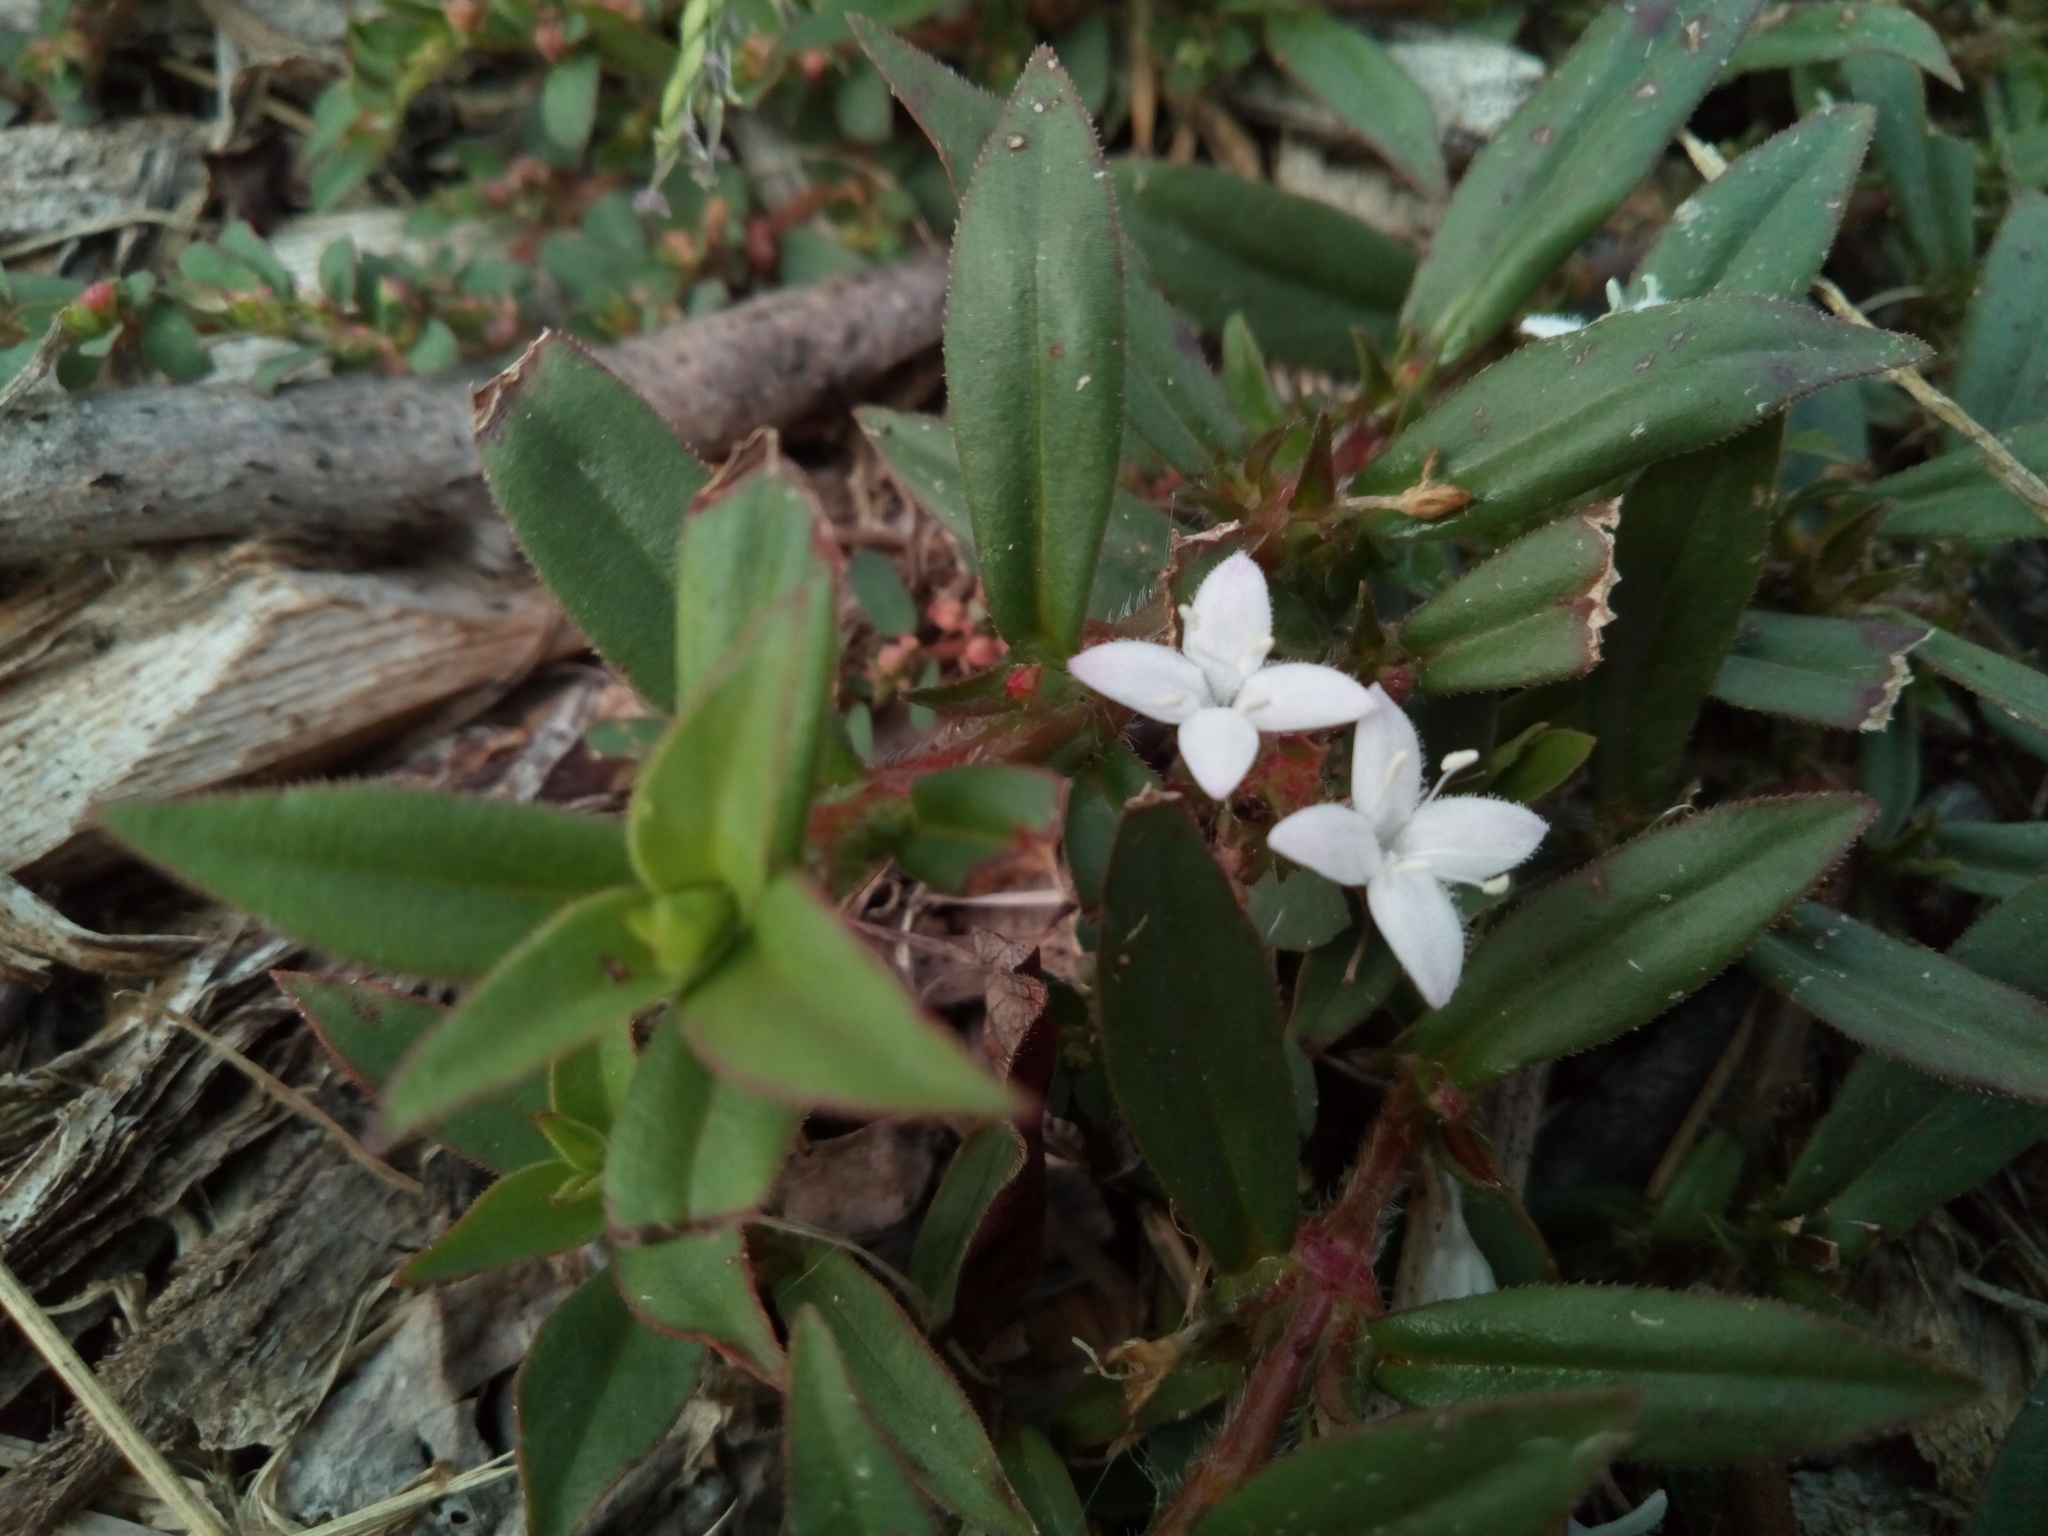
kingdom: Plantae
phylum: Tracheophyta
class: Magnoliopsida
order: Gentianales
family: Rubiaceae
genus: Diodia
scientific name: Diodia virginiana
